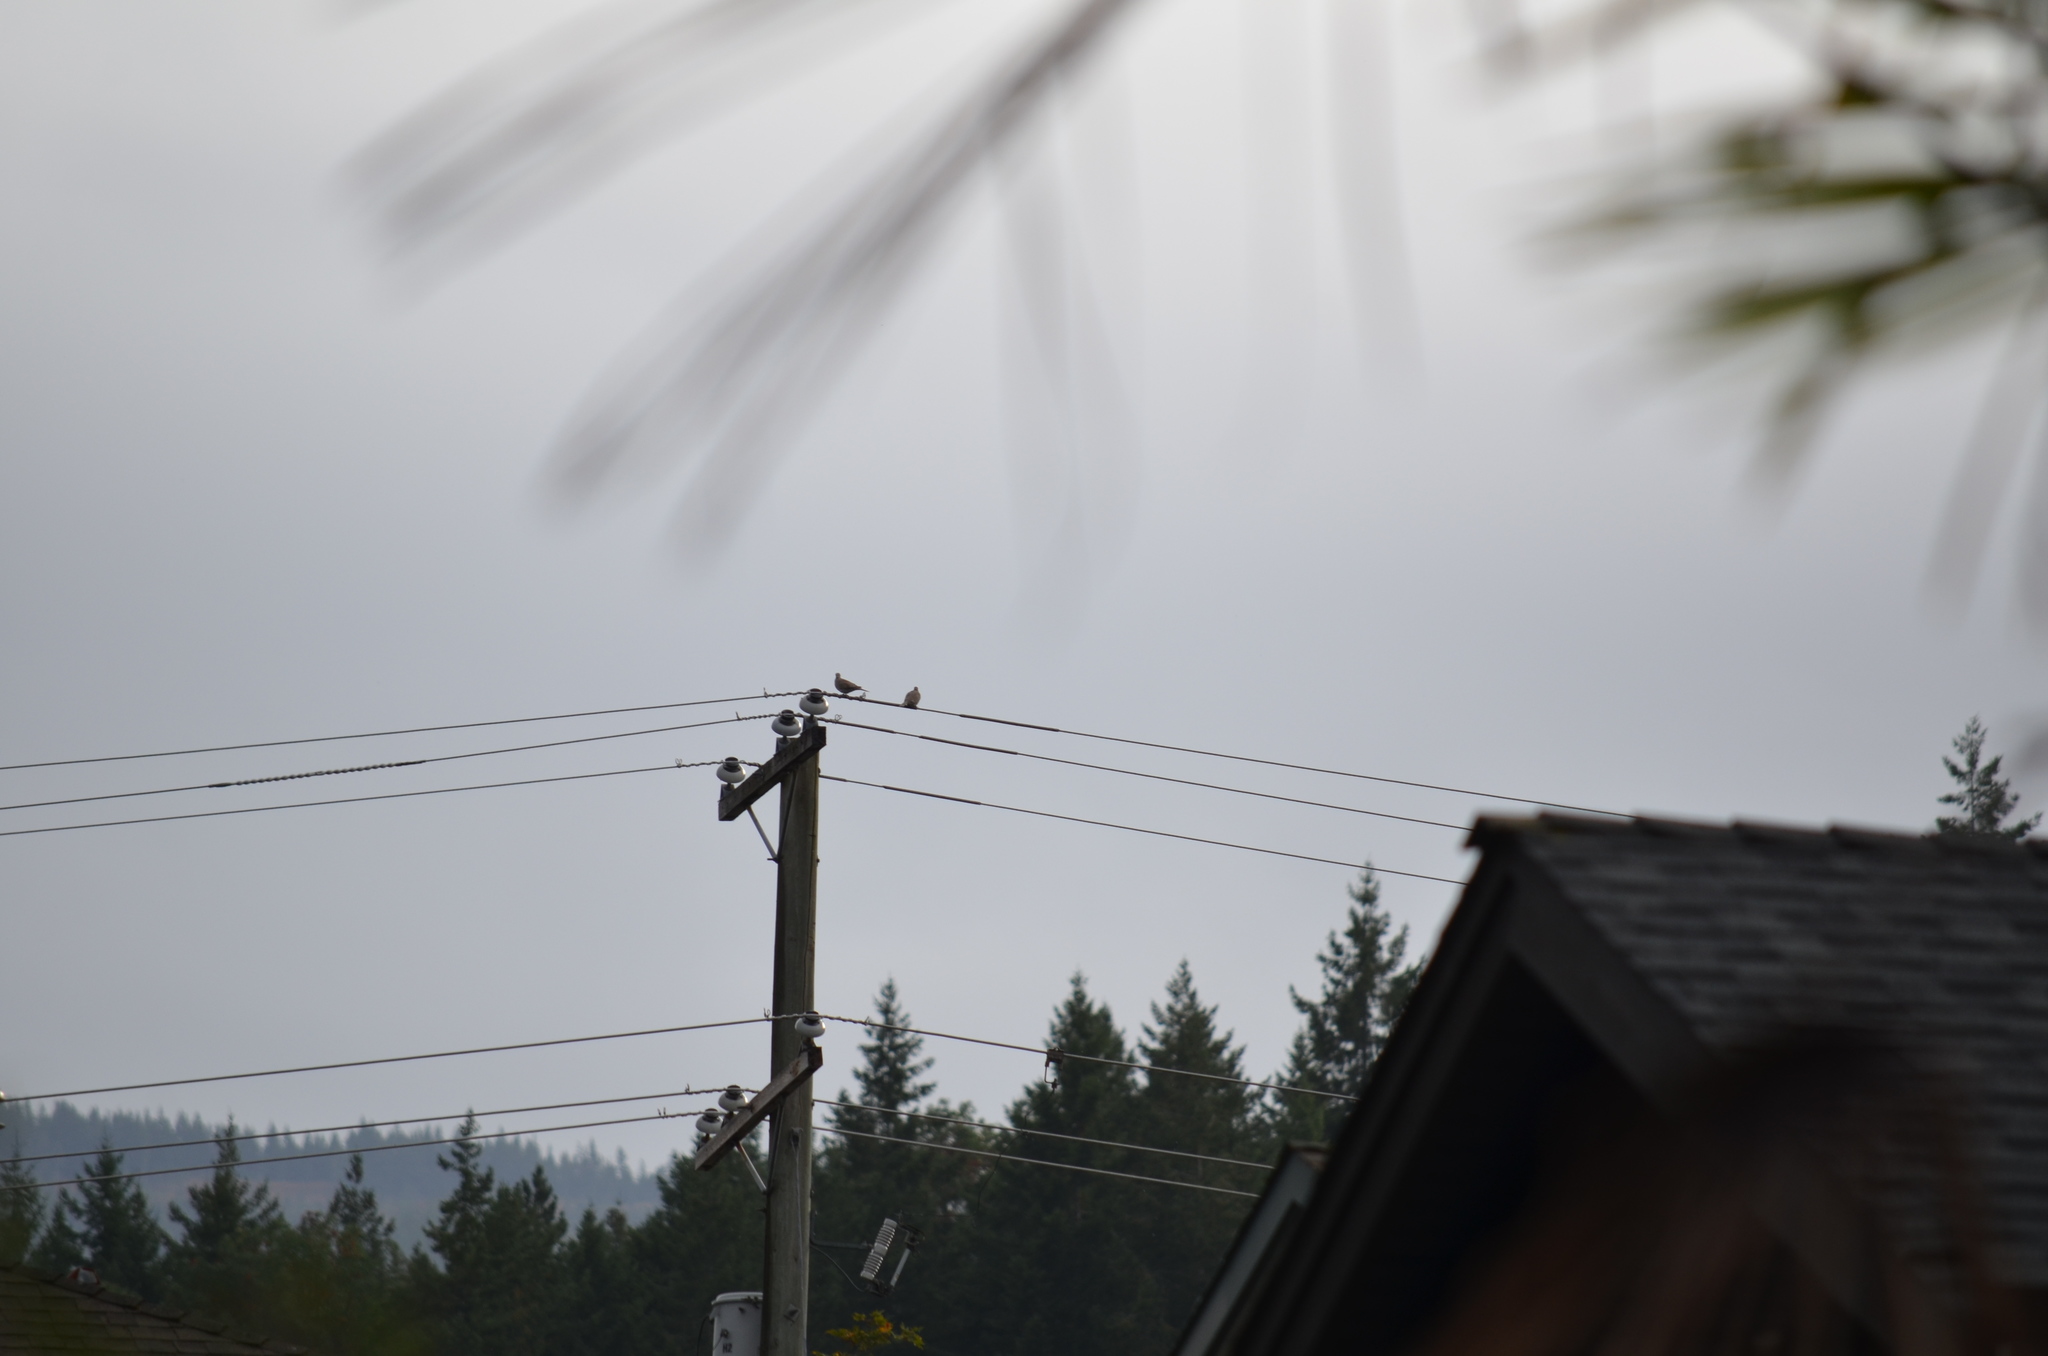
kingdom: Animalia
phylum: Chordata
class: Aves
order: Columbiformes
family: Columbidae
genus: Streptopelia
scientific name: Streptopelia decaocto
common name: Eurasian collared dove
